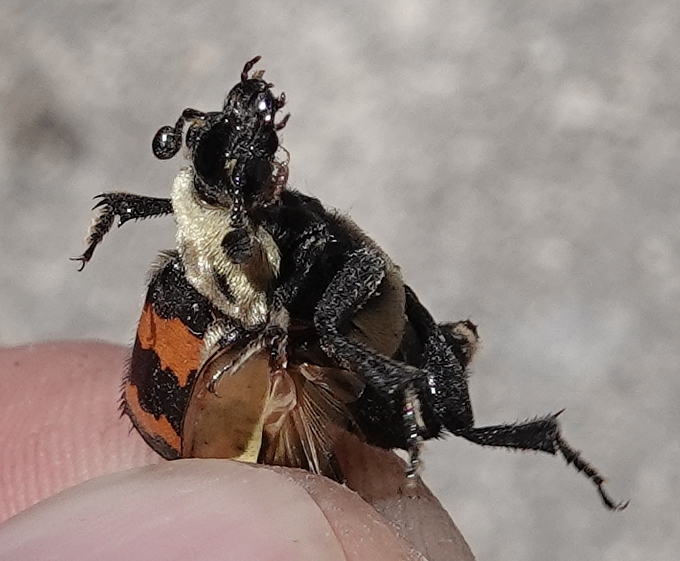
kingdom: Animalia
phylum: Arthropoda
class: Insecta
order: Coleoptera
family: Staphylinidae
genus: Nicrophorus
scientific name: Nicrophorus tomentosus
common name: Tomentose burying beetle
